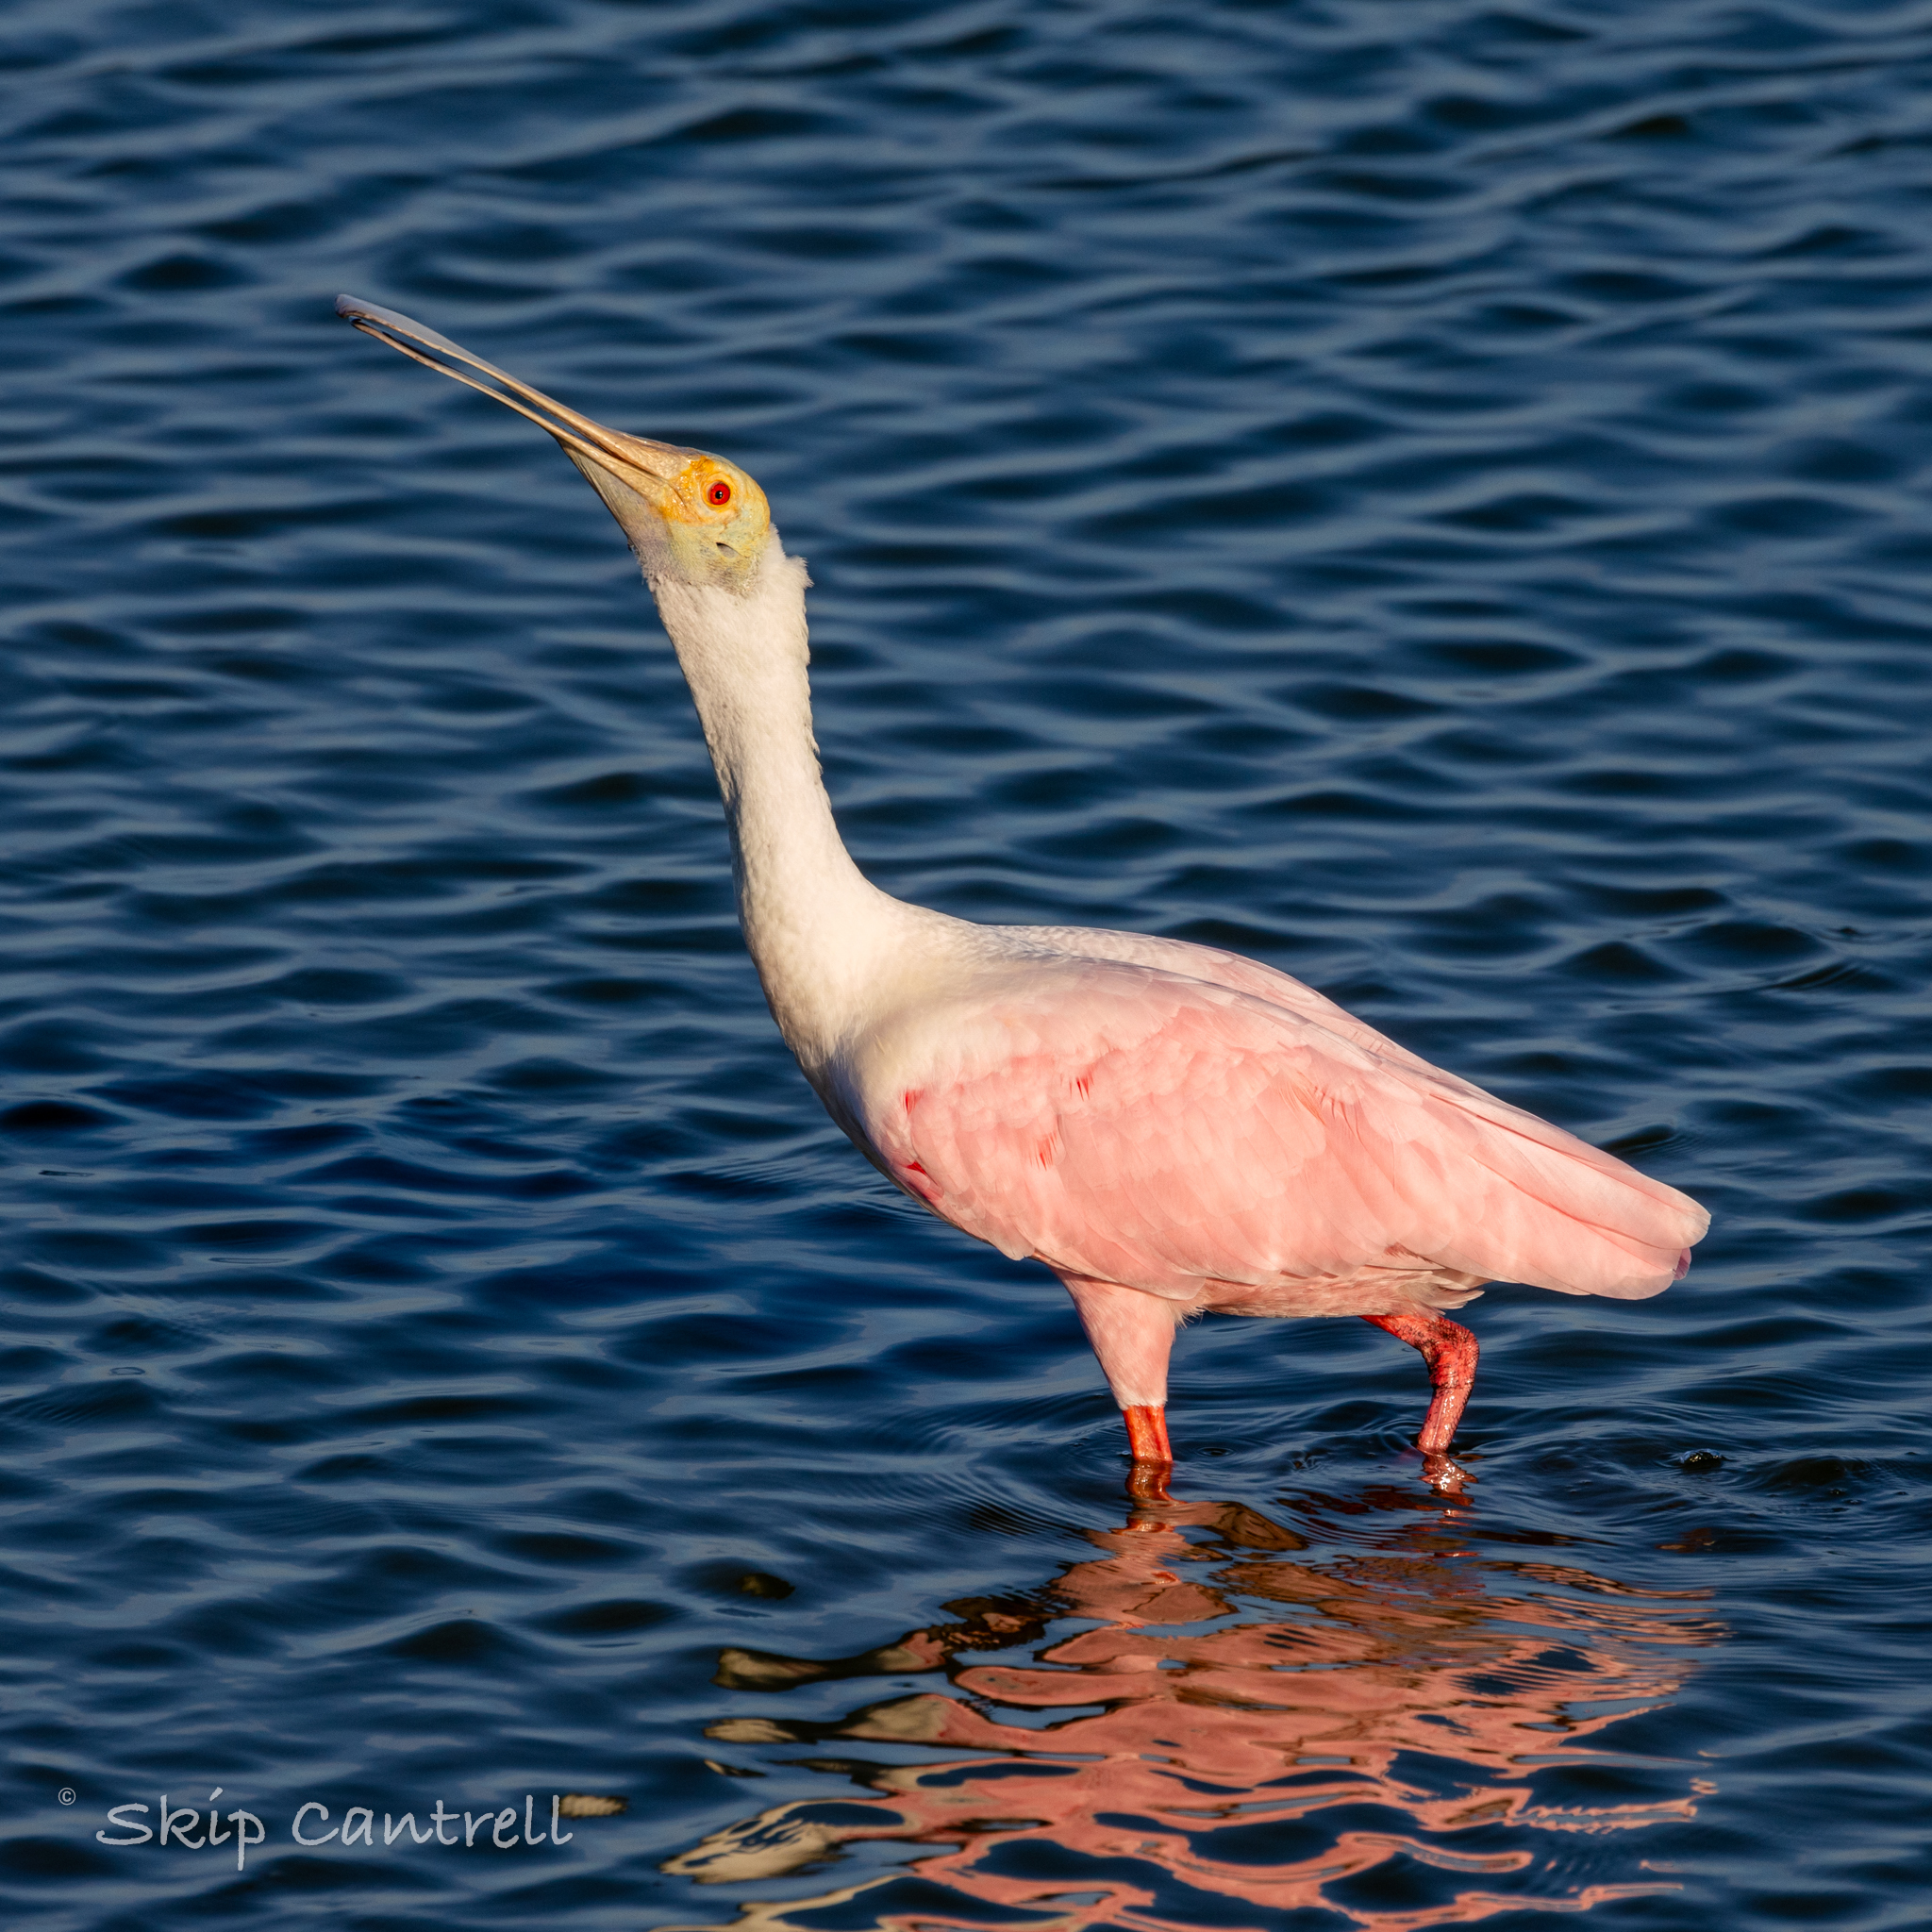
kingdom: Animalia
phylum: Chordata
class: Aves
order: Pelecaniformes
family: Threskiornithidae
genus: Platalea
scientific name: Platalea ajaja
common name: Roseate spoonbill
